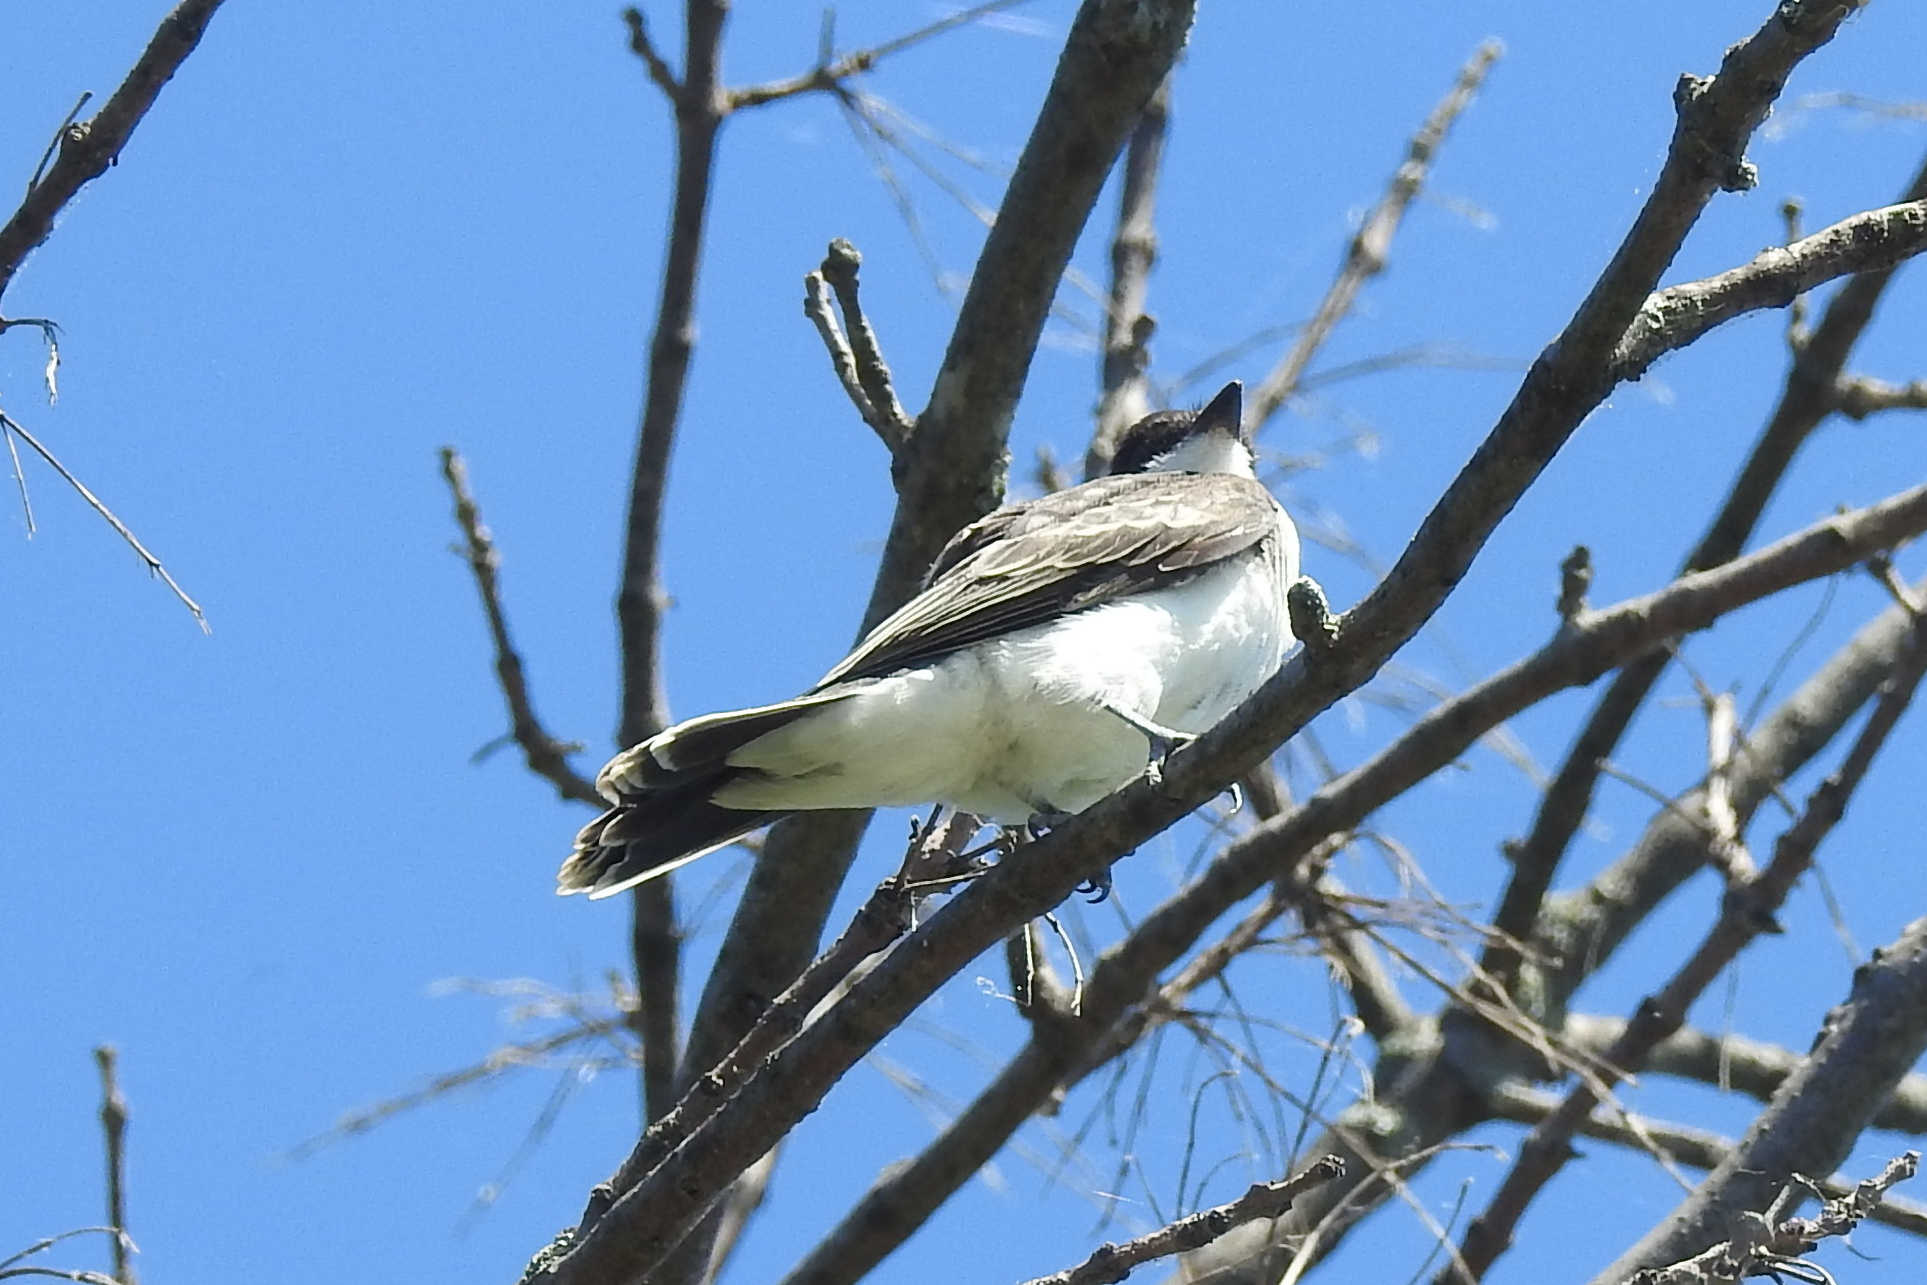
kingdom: Animalia
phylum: Chordata
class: Aves
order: Passeriformes
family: Tyrannidae
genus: Tyrannus
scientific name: Tyrannus tyrannus
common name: Eastern kingbird
